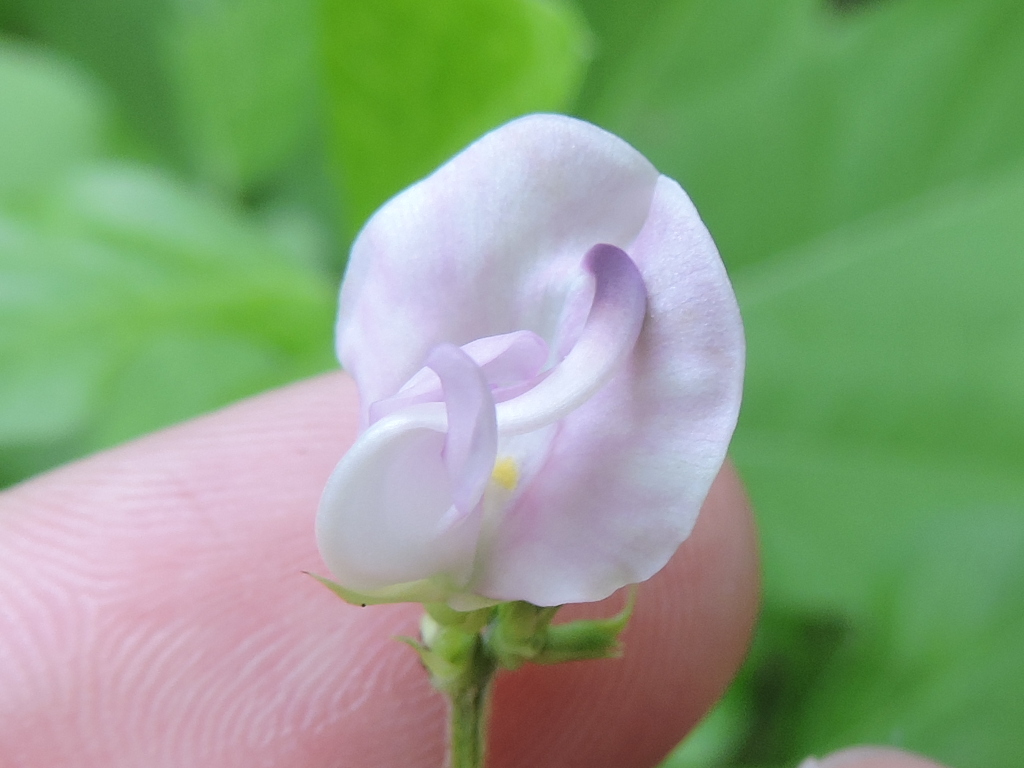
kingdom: Plantae
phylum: Tracheophyta
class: Magnoliopsida
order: Fabales
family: Fabaceae
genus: Strophostyles
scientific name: Strophostyles helvola
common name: Trailing wild bean
